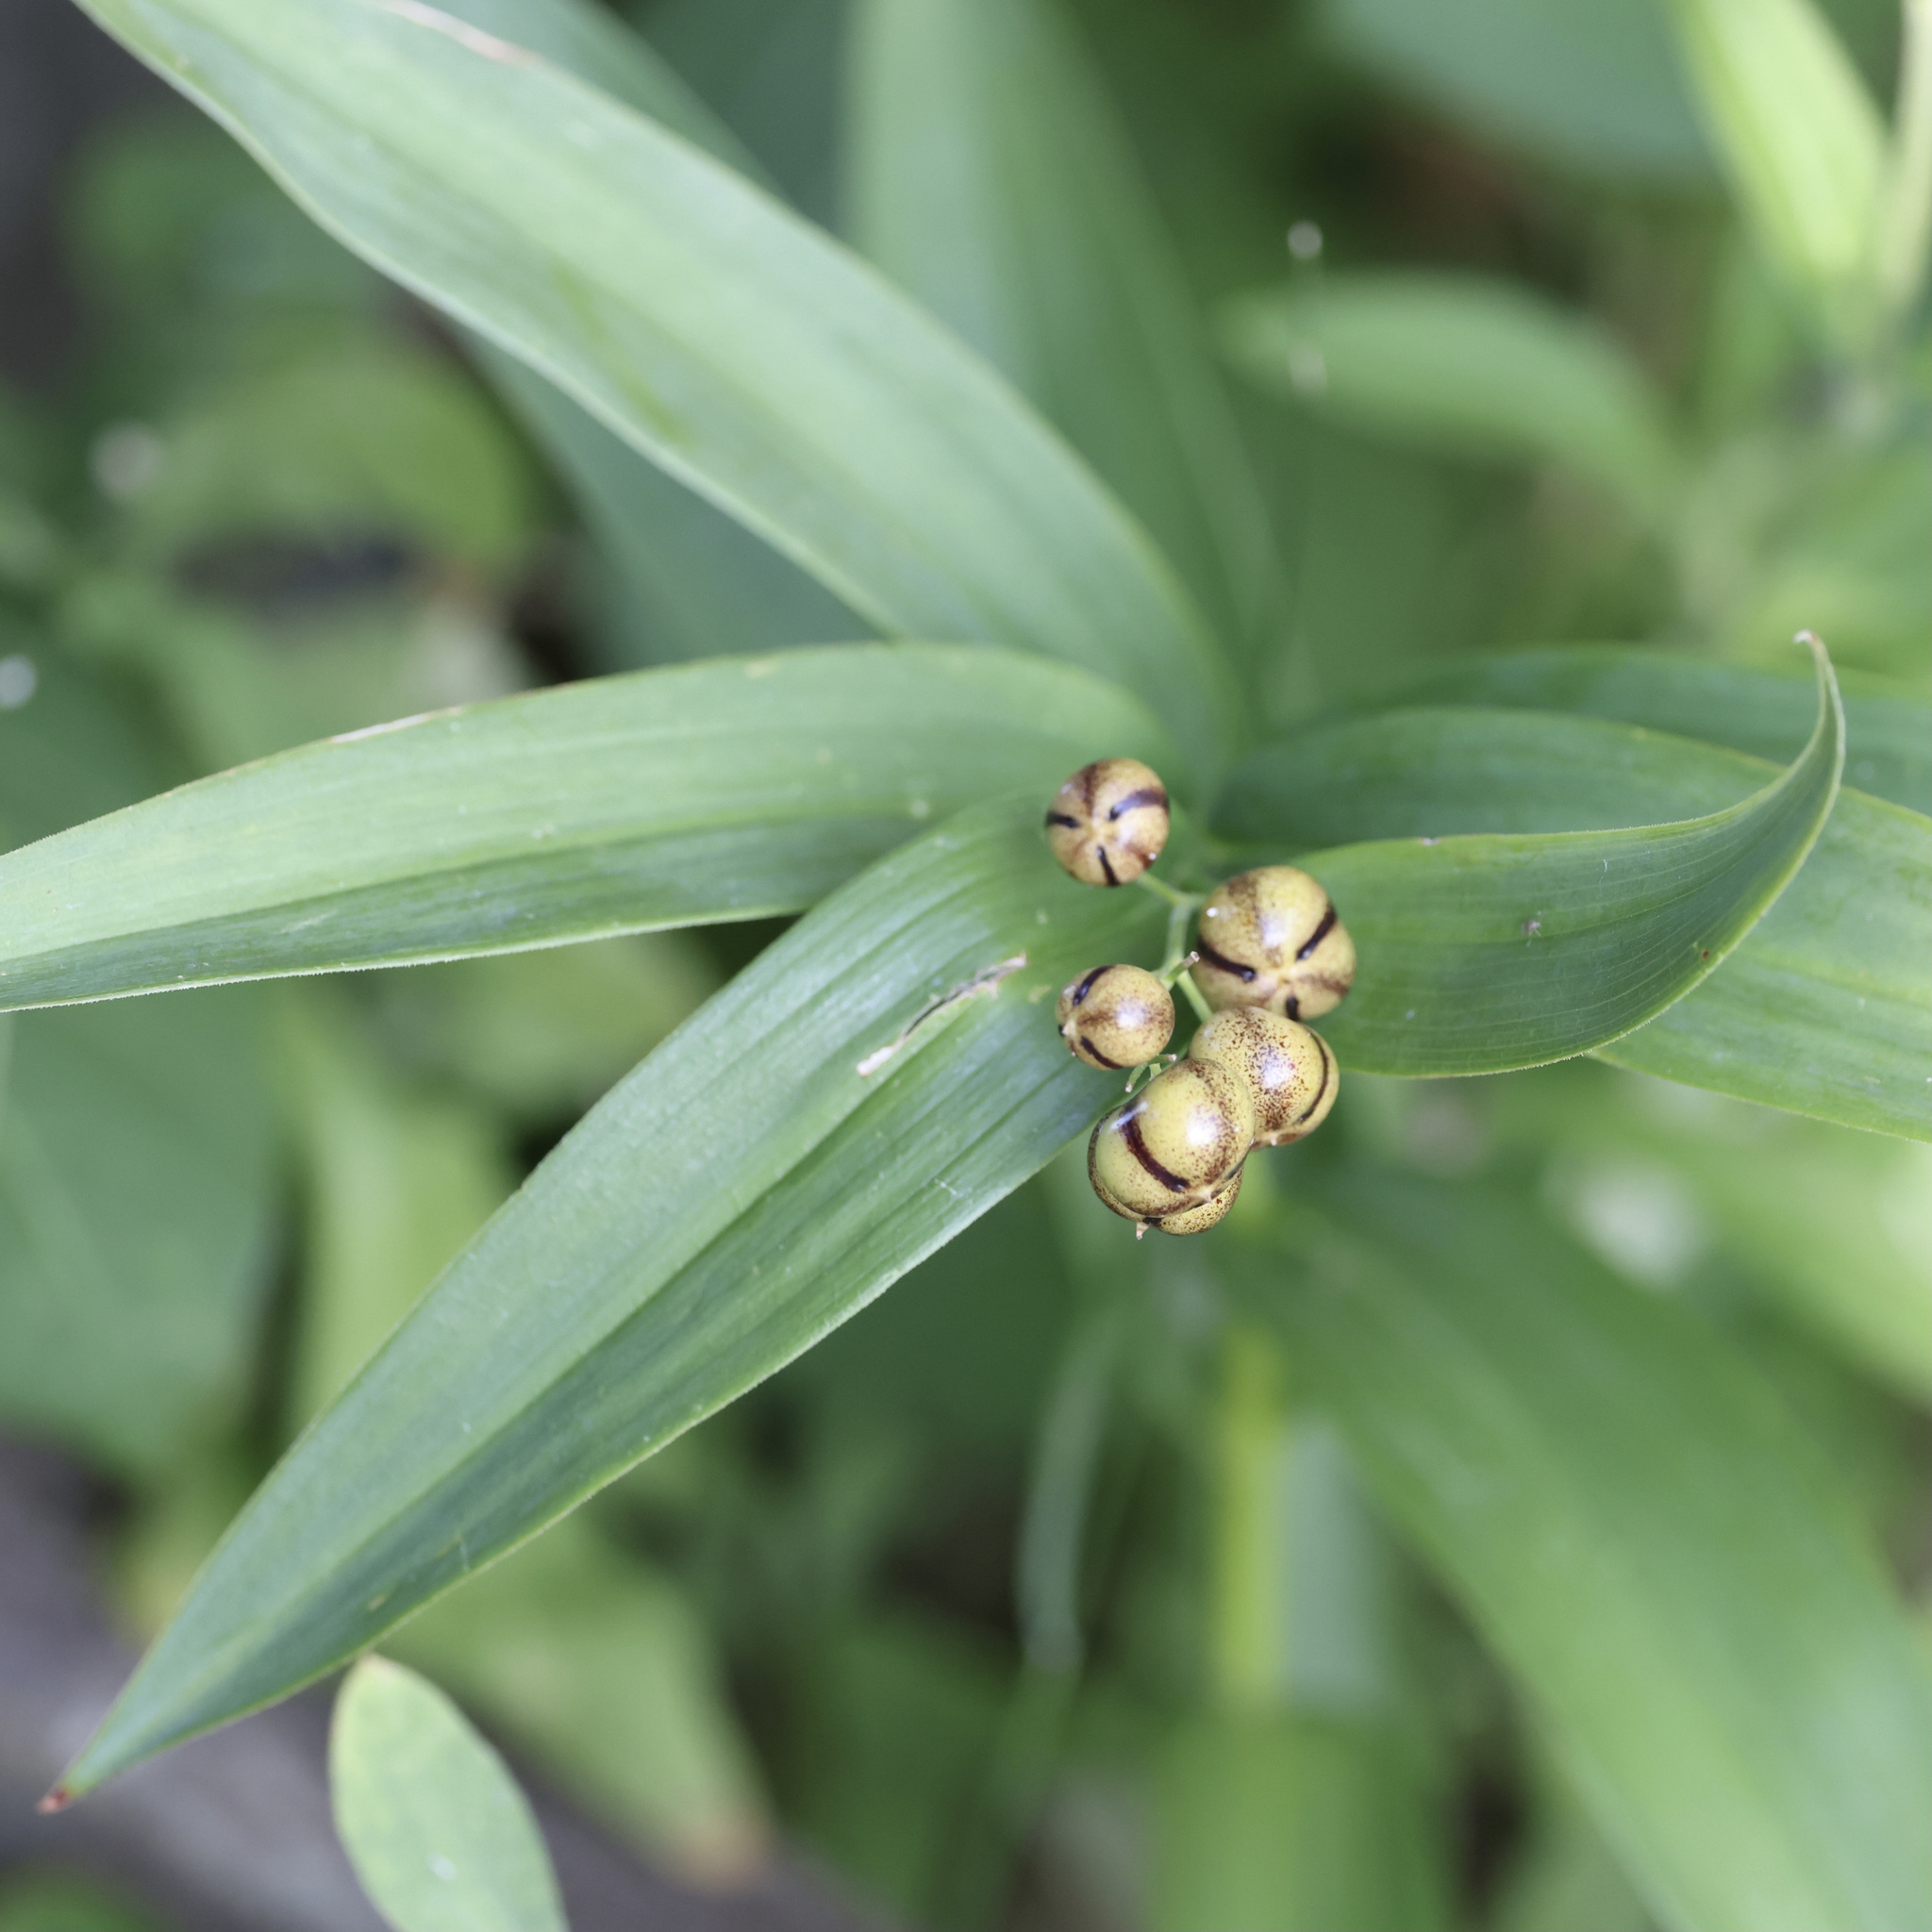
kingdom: Plantae
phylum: Tracheophyta
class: Liliopsida
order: Asparagales
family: Asparagaceae
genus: Maianthemum
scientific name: Maianthemum stellatum
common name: Little false solomon's seal
